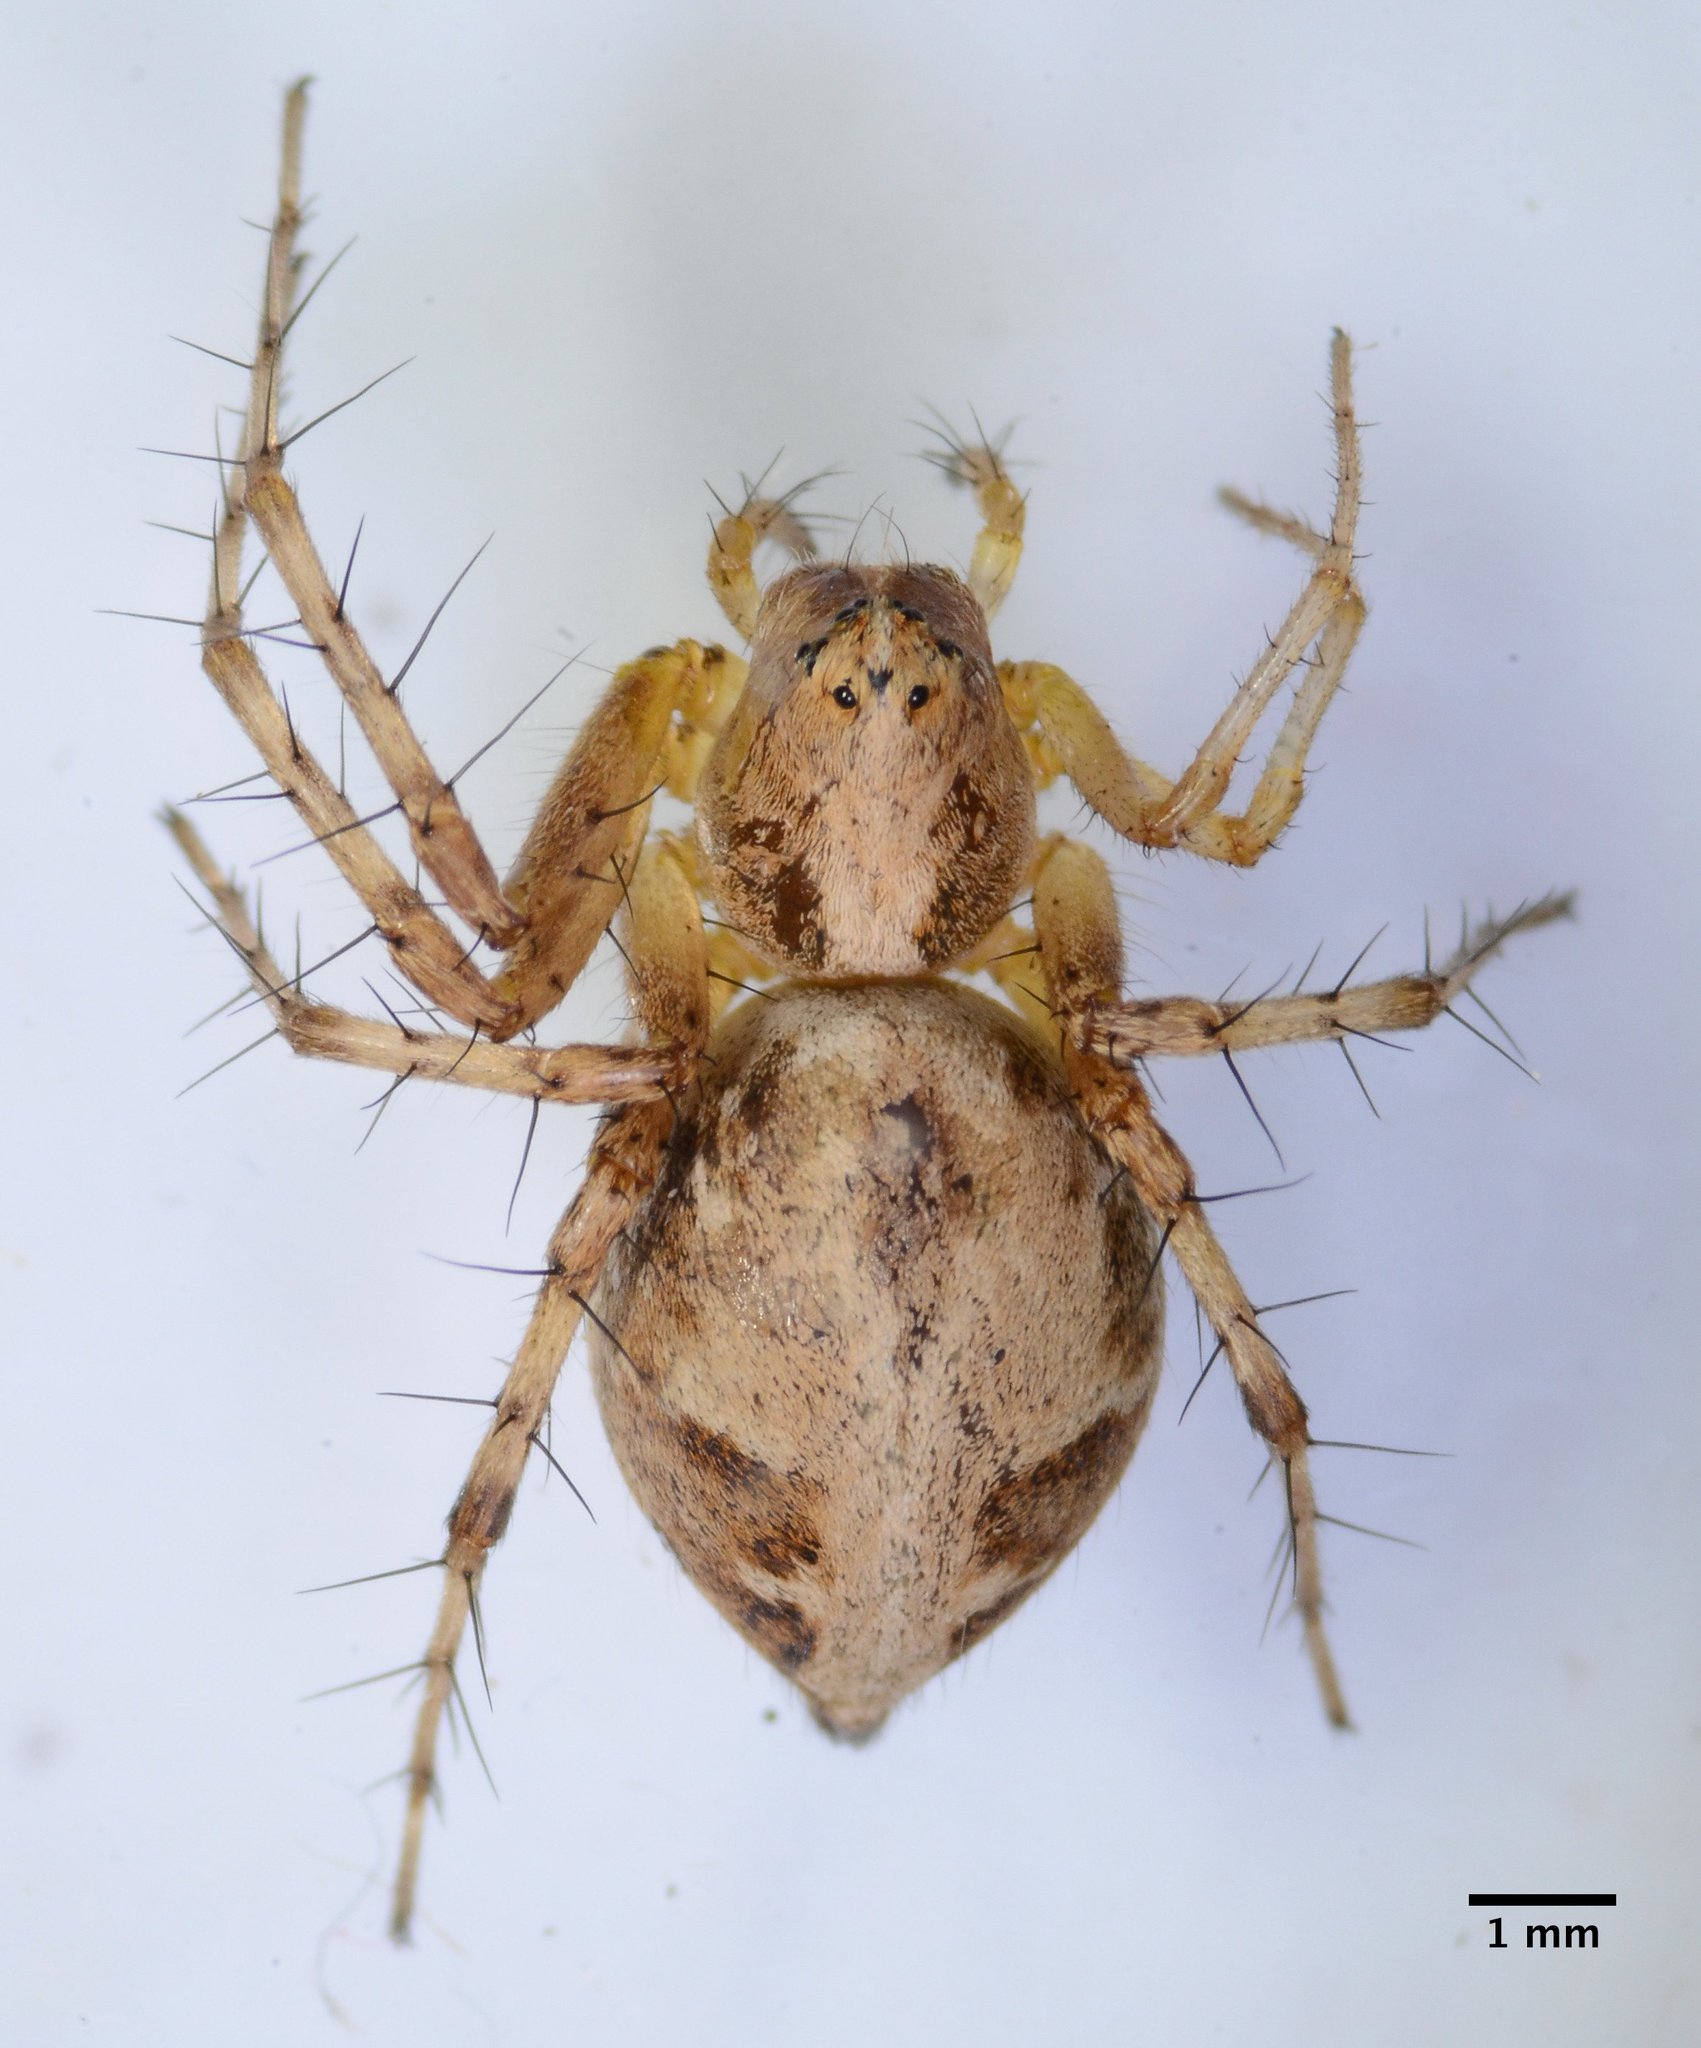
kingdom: Animalia
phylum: Arthropoda
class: Arachnida
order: Araneae
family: Oxyopidae
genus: Oxyopes
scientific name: Oxyopes scalaris
